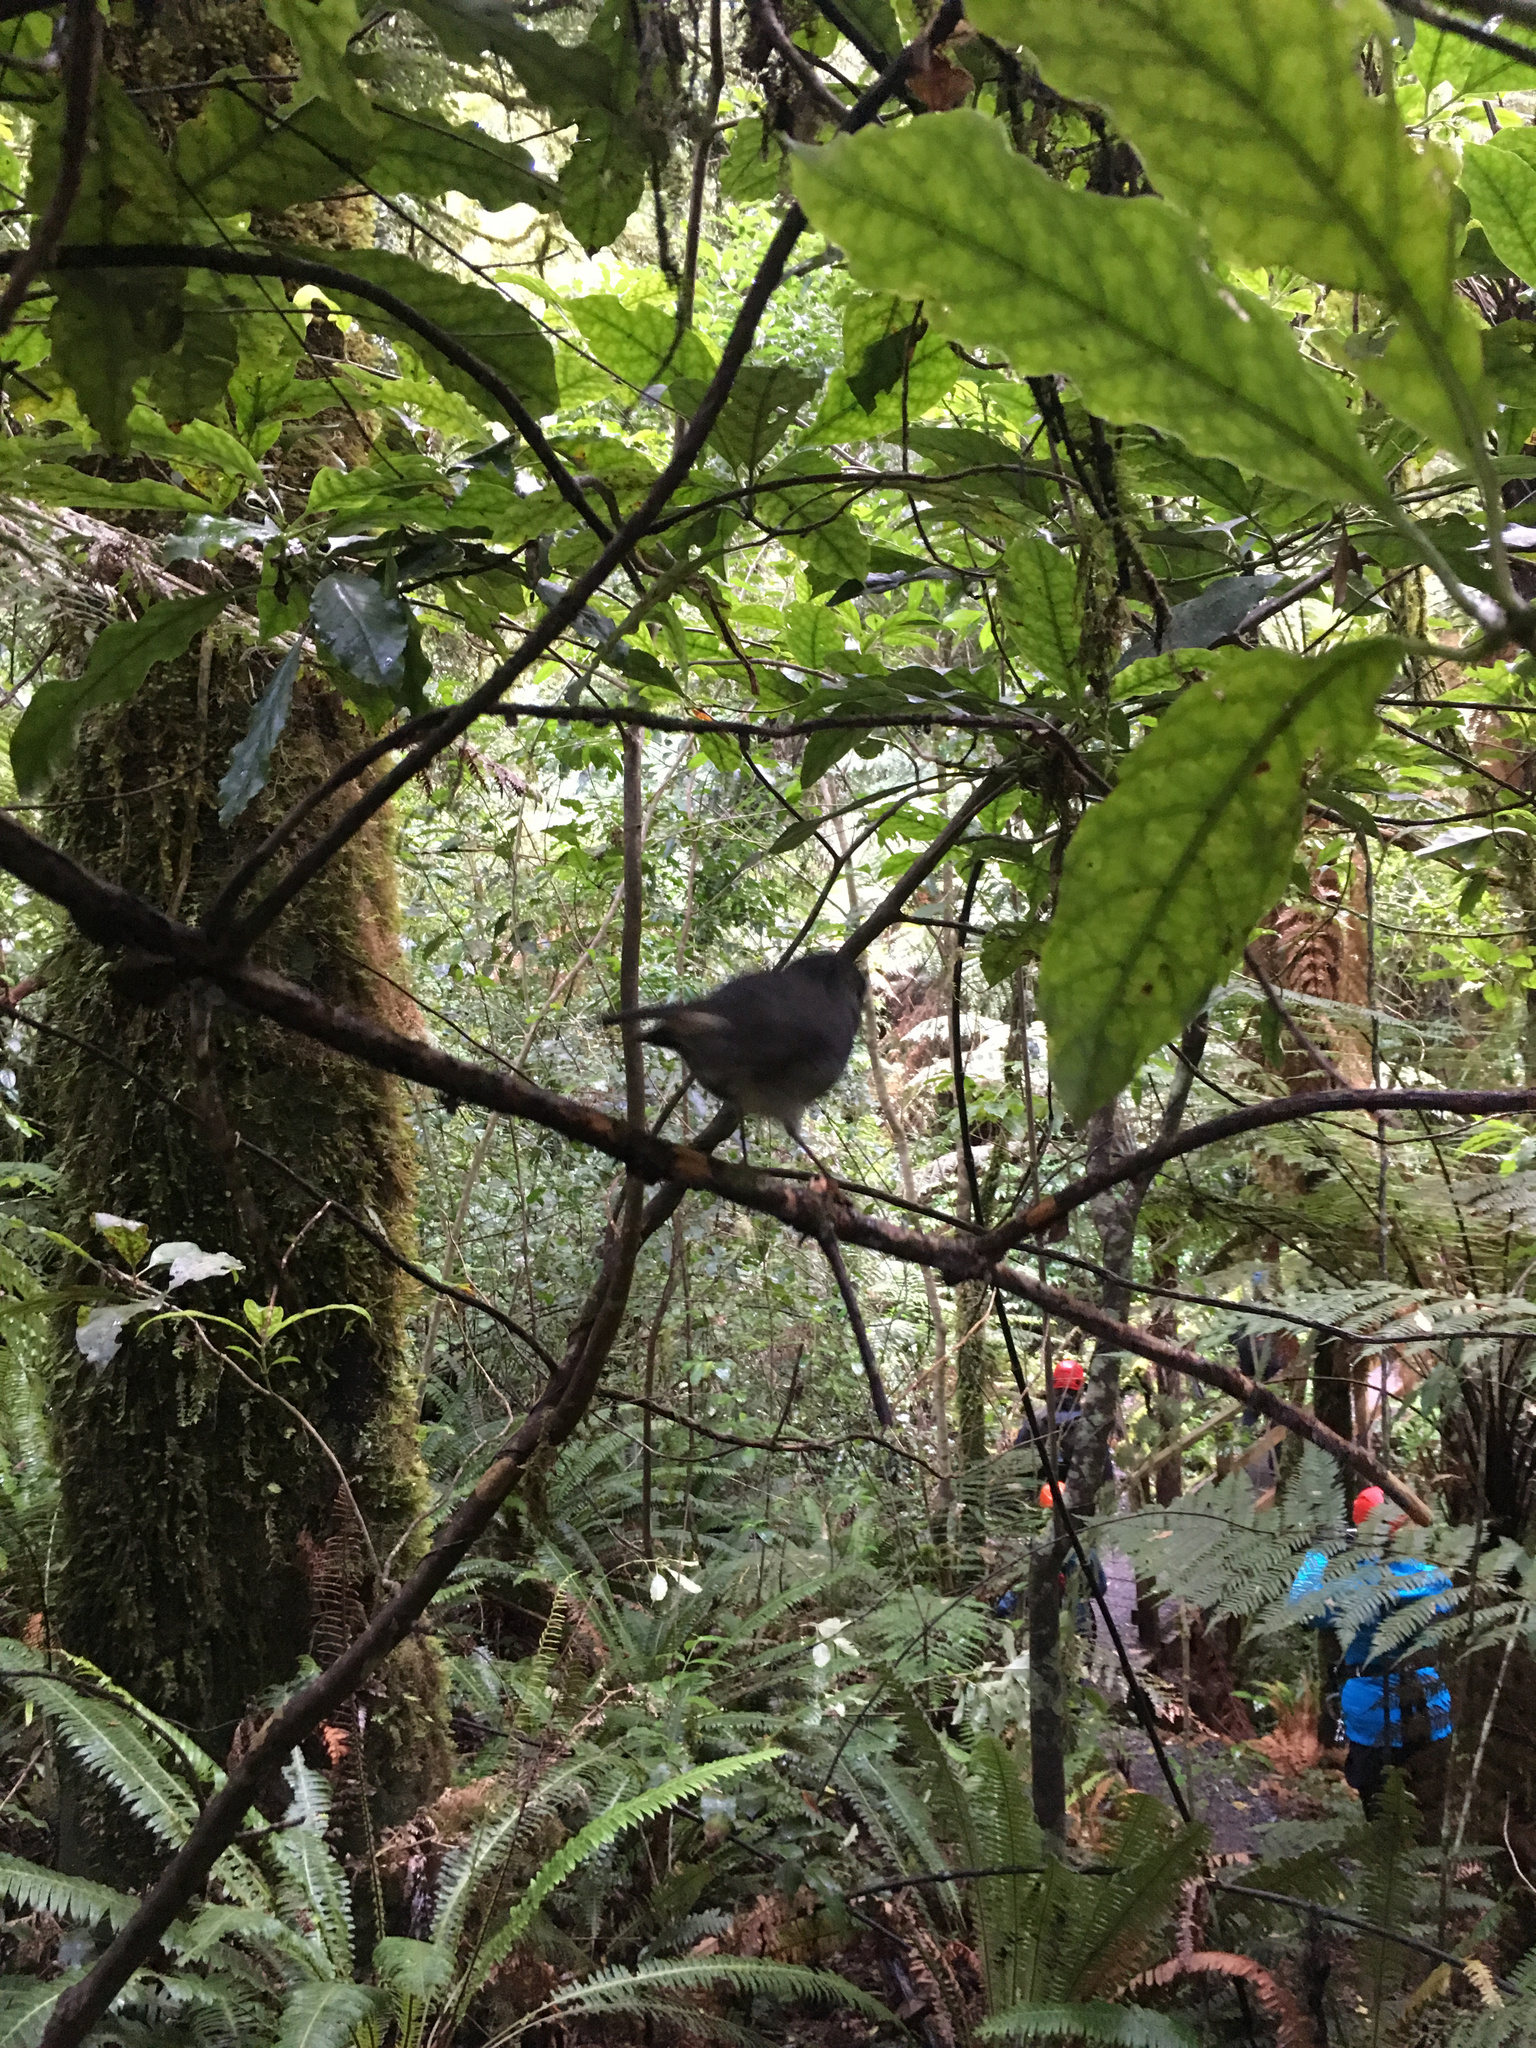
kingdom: Animalia
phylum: Chordata
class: Aves
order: Passeriformes
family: Petroicidae
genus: Petroica
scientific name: Petroica australis
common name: New zealand robin
